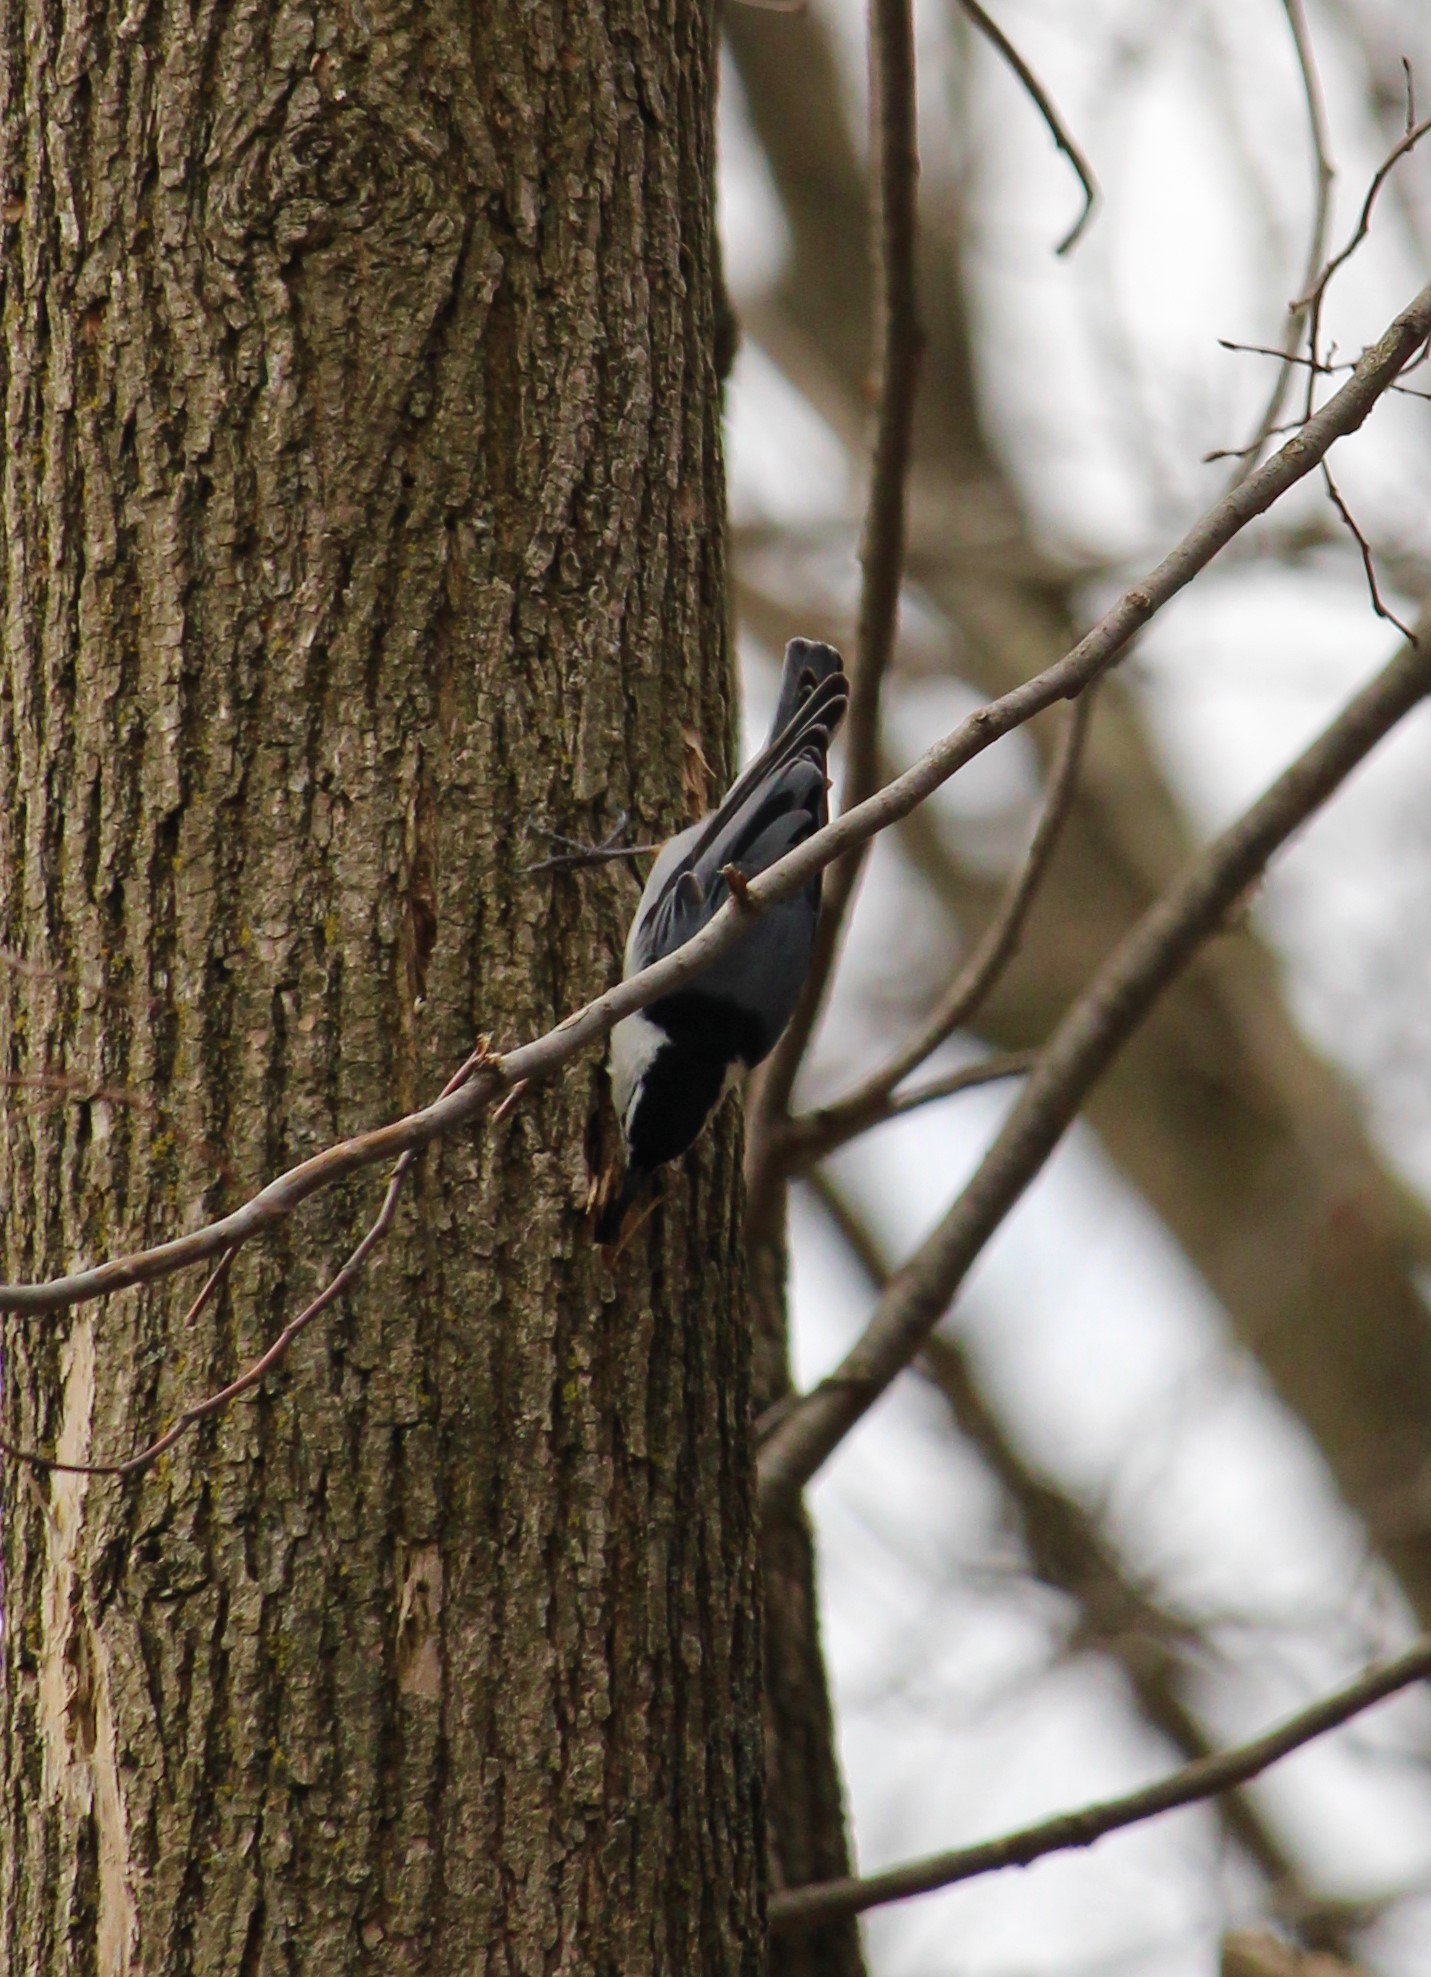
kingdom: Animalia
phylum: Chordata
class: Aves
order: Passeriformes
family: Sittidae
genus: Sitta
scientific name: Sitta carolinensis
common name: White-breasted nuthatch
